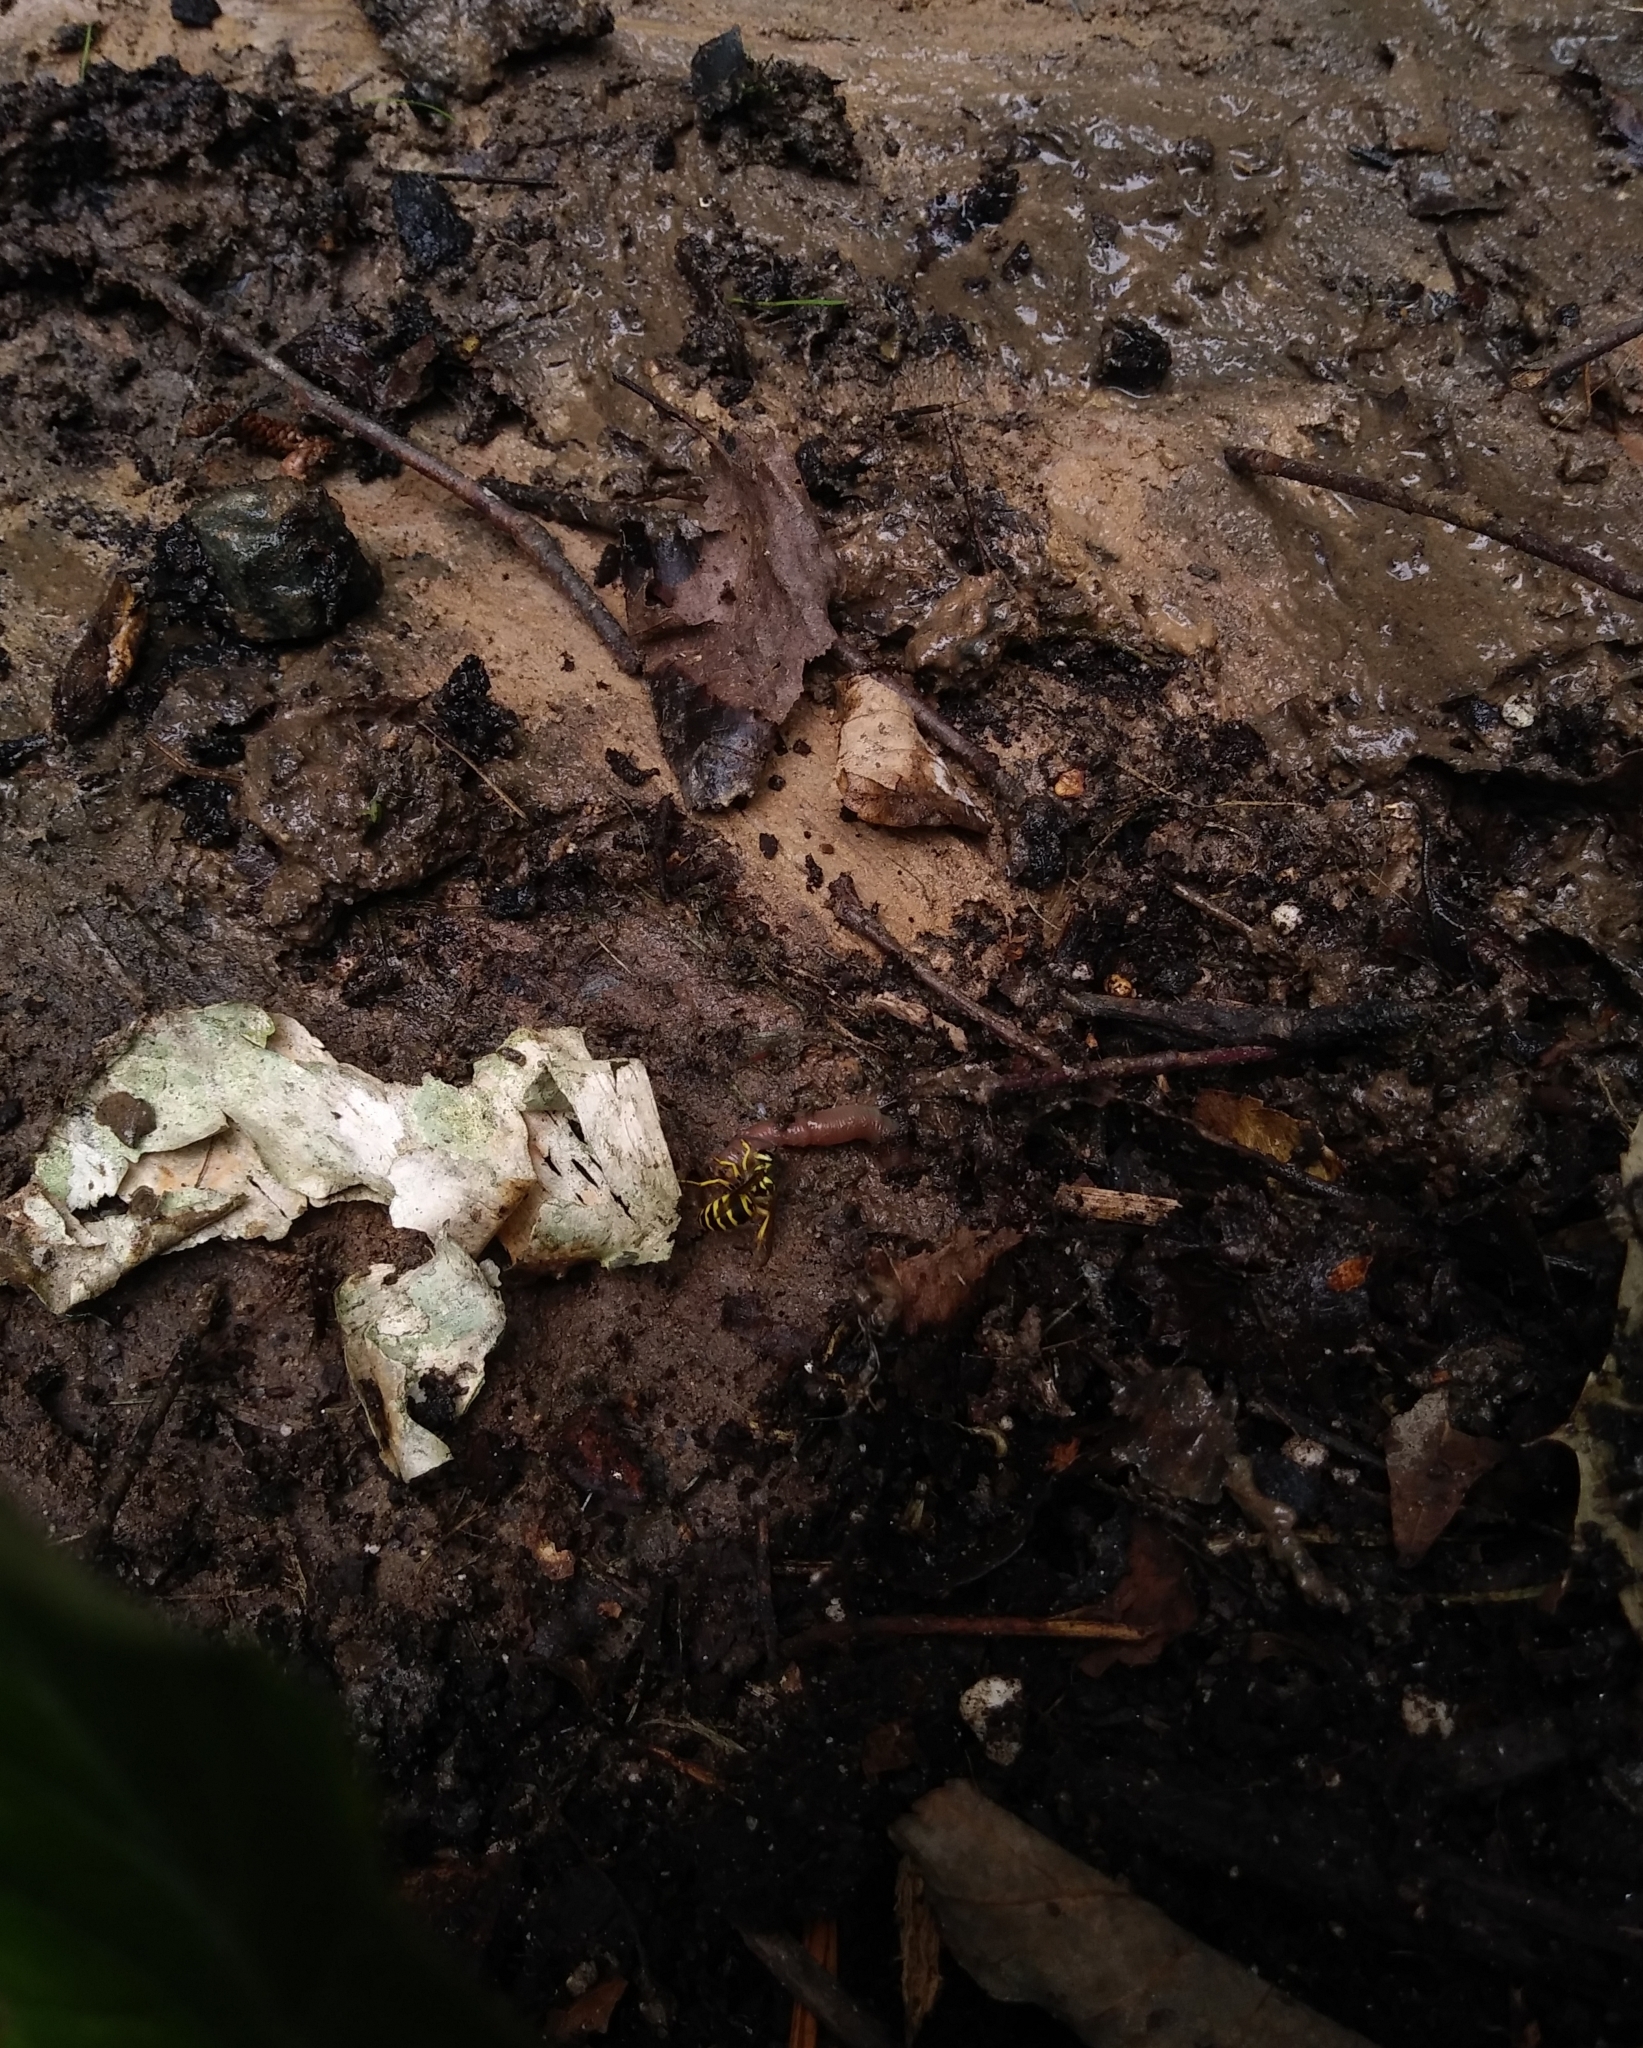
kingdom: Animalia
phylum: Arthropoda
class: Insecta
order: Hymenoptera
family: Vespidae
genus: Vespula
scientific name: Vespula maculifrons
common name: Eastern yellowjacket
